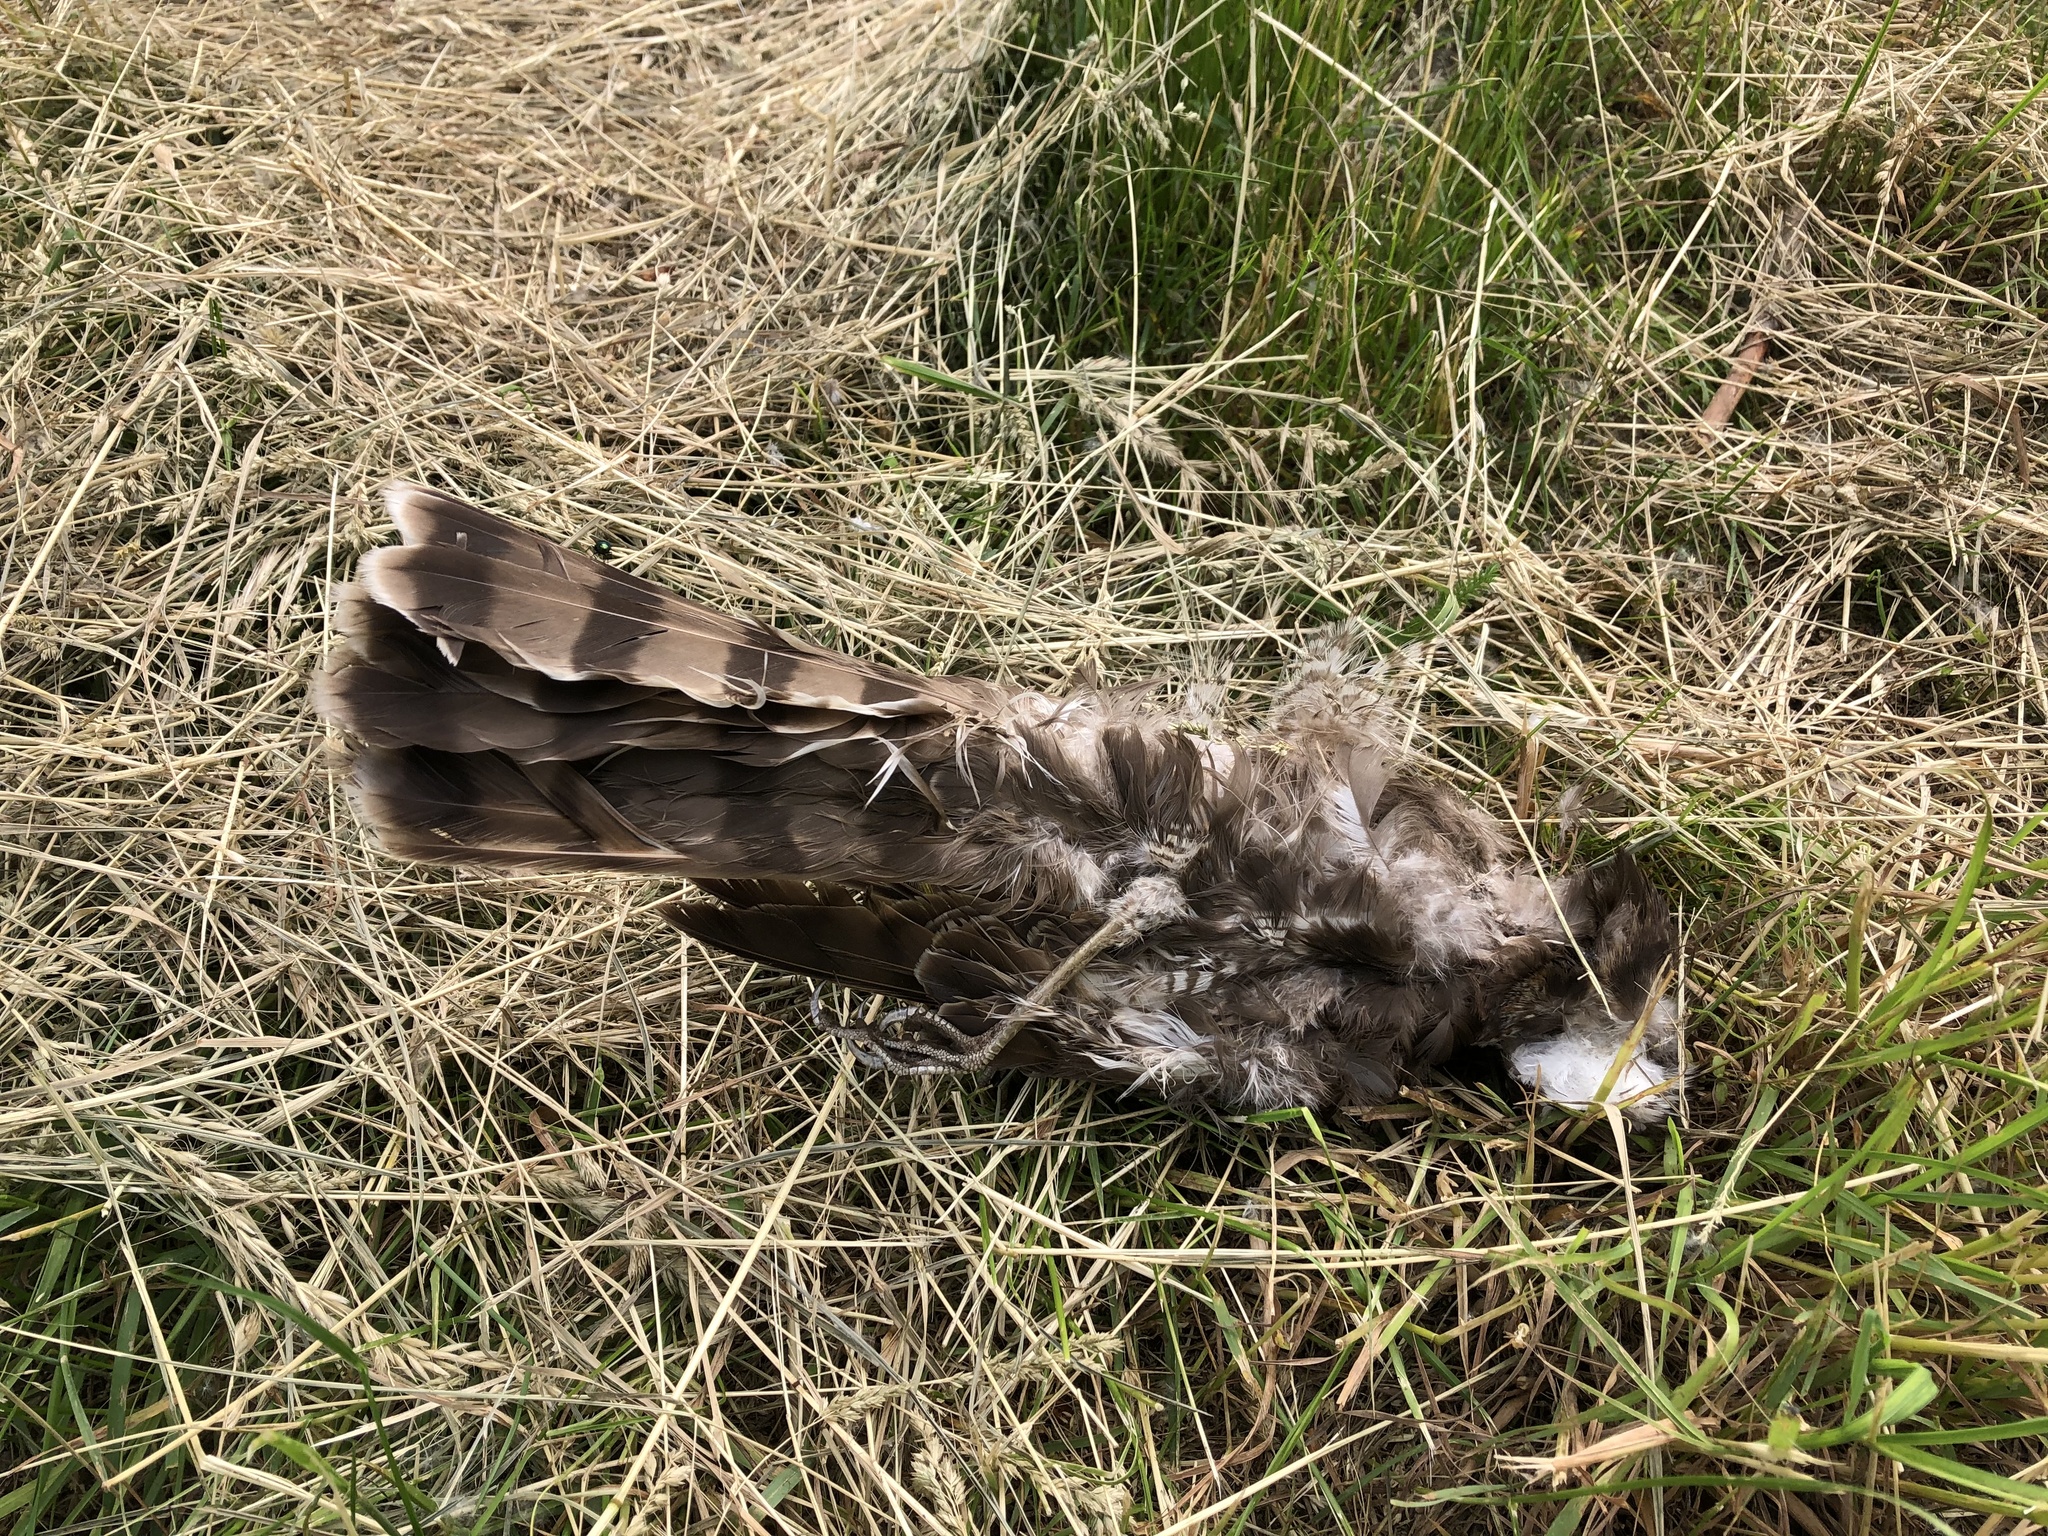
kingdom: Animalia
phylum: Chordata
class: Aves
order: Accipitriformes
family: Accipitridae
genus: Accipiter
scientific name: Accipiter nisus
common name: Eurasian sparrowhawk
